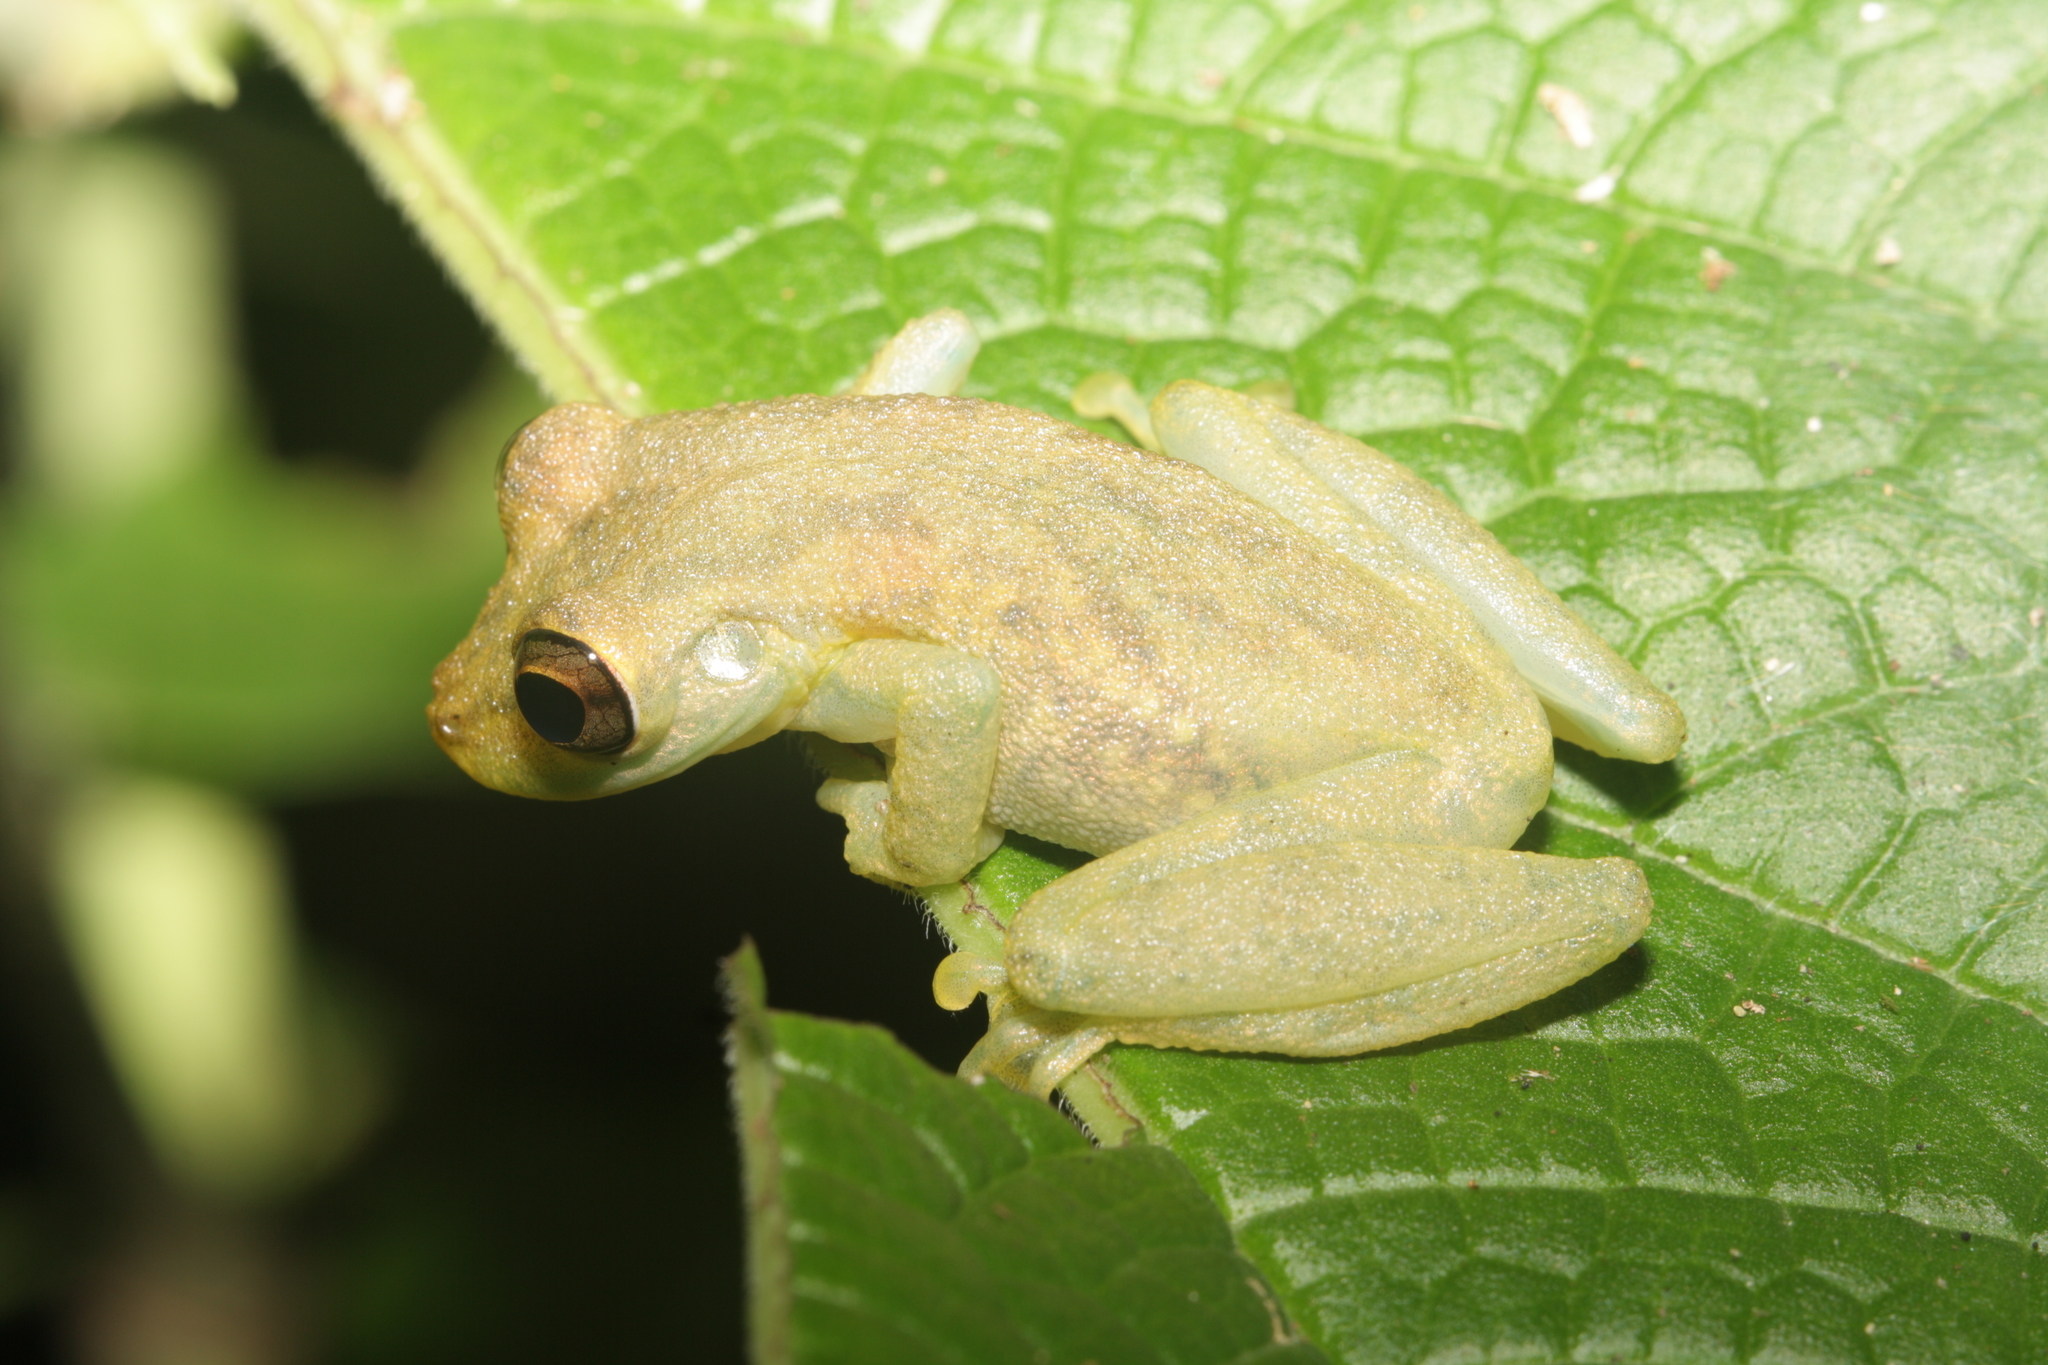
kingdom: Animalia
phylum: Chordata
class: Amphibia
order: Anura
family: Hylidae
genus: Scinax
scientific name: Scinax elaeochroa
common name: Sipurio snouted treefrog
